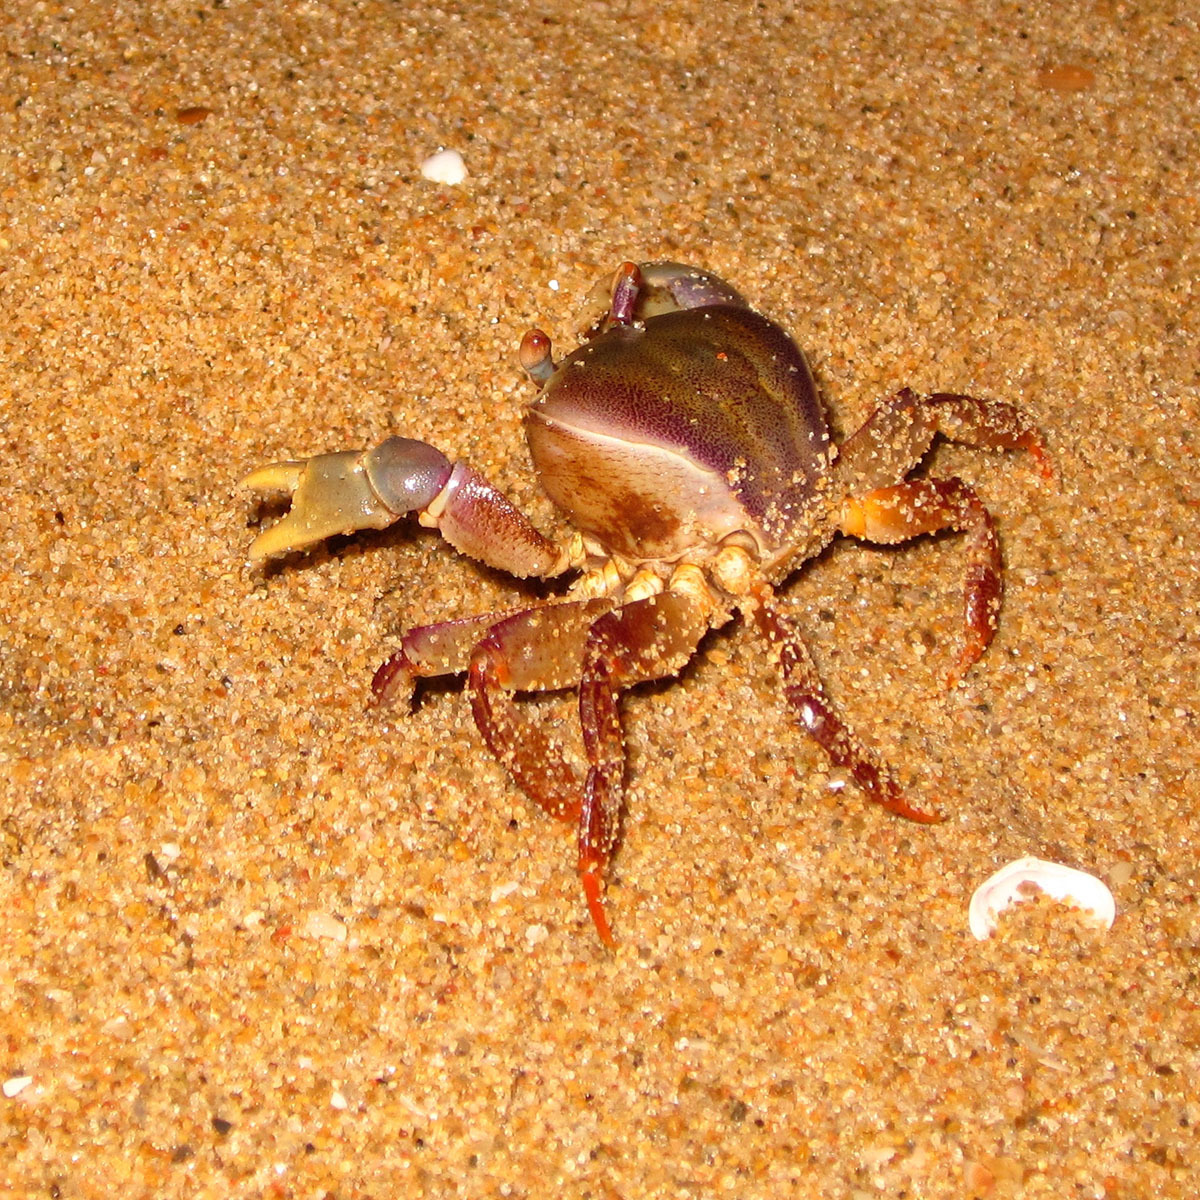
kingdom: Animalia
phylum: Arthropoda
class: Malacostraca
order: Decapoda
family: Gecarcinidae
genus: Cardisoma
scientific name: Cardisoma carnifex
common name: Brown land crab
